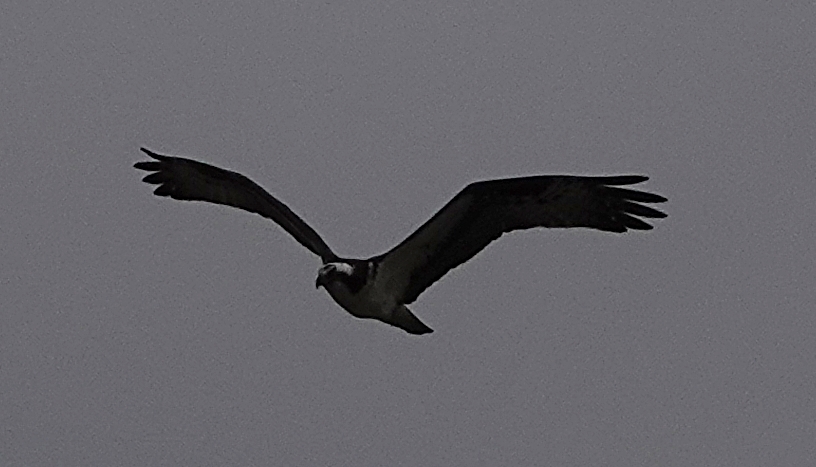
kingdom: Animalia
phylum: Chordata
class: Aves
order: Accipitriformes
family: Pandionidae
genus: Pandion
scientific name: Pandion haliaetus
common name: Osprey
